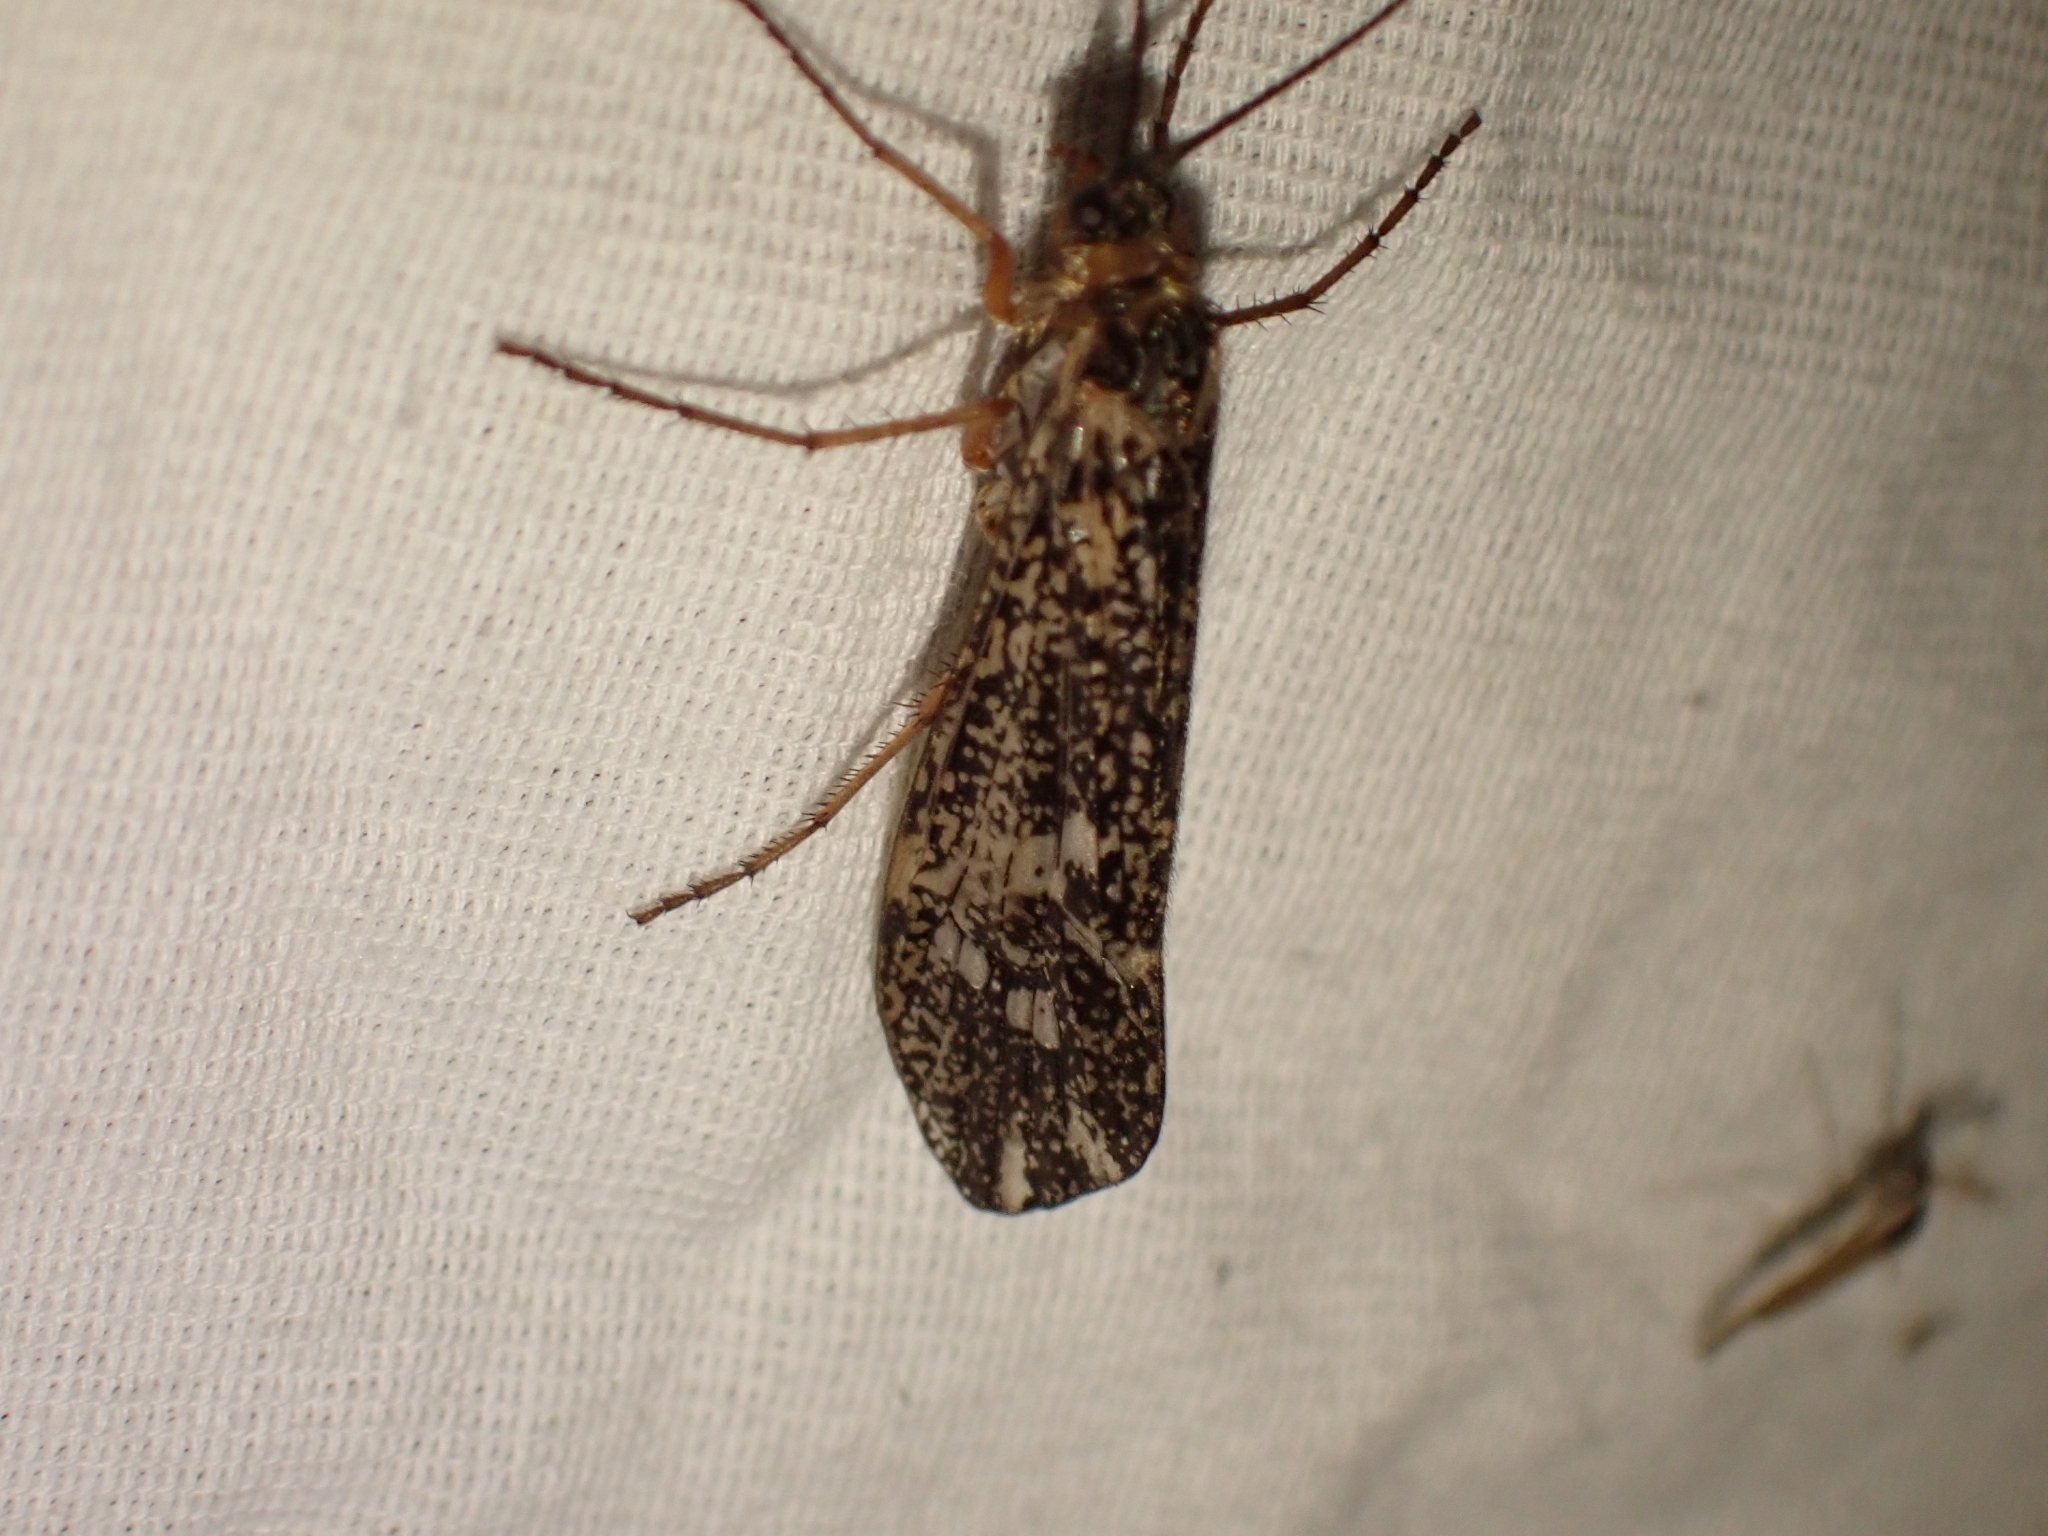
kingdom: Animalia
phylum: Arthropoda
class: Insecta
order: Trichoptera
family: Limnephilidae
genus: Clistoronia
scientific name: Clistoronia magnifica
